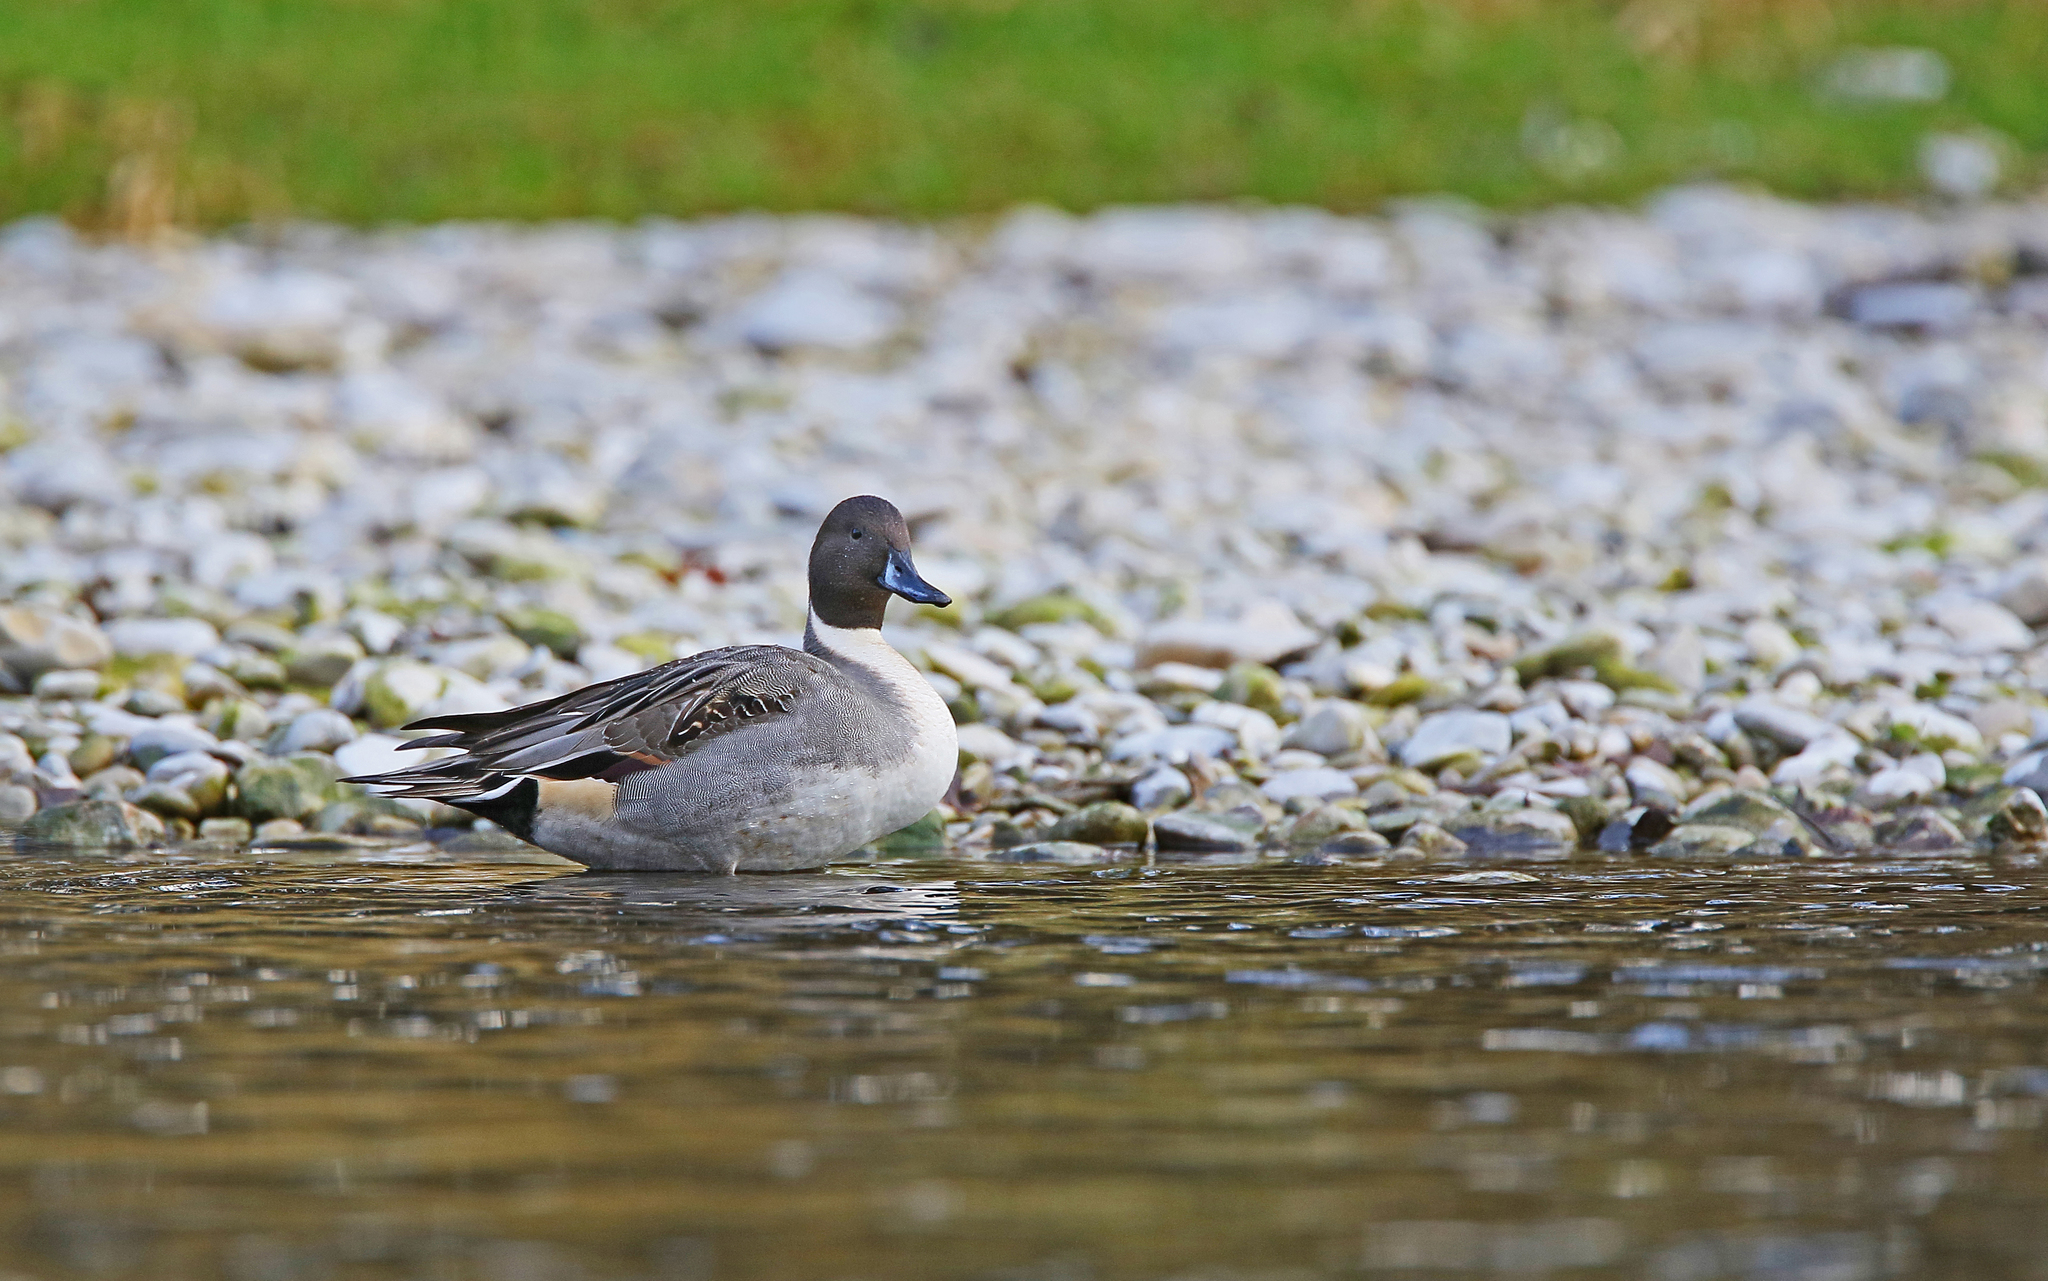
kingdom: Animalia
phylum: Chordata
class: Aves
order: Anseriformes
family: Anatidae
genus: Anas
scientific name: Anas acuta
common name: Northern pintail
